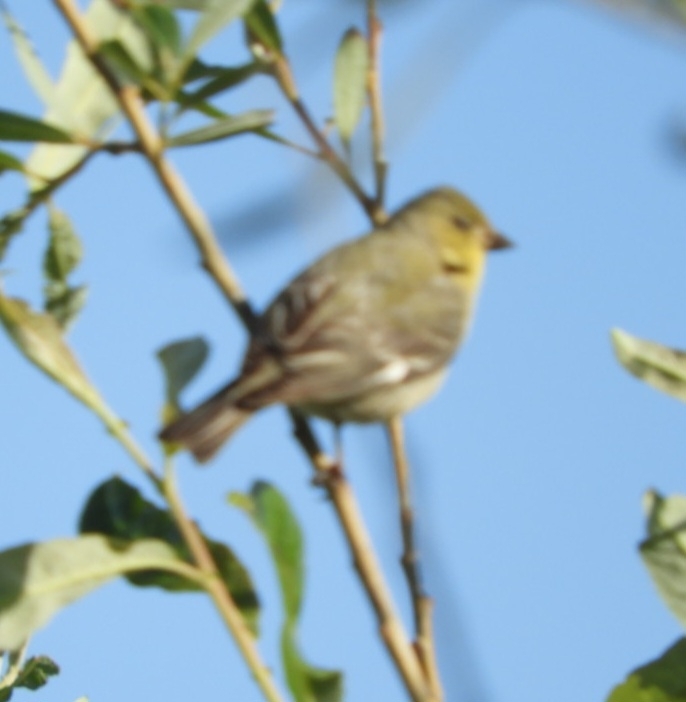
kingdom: Animalia
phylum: Chordata
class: Aves
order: Passeriformes
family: Fringillidae
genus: Spinus
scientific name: Spinus psaltria
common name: Lesser goldfinch
